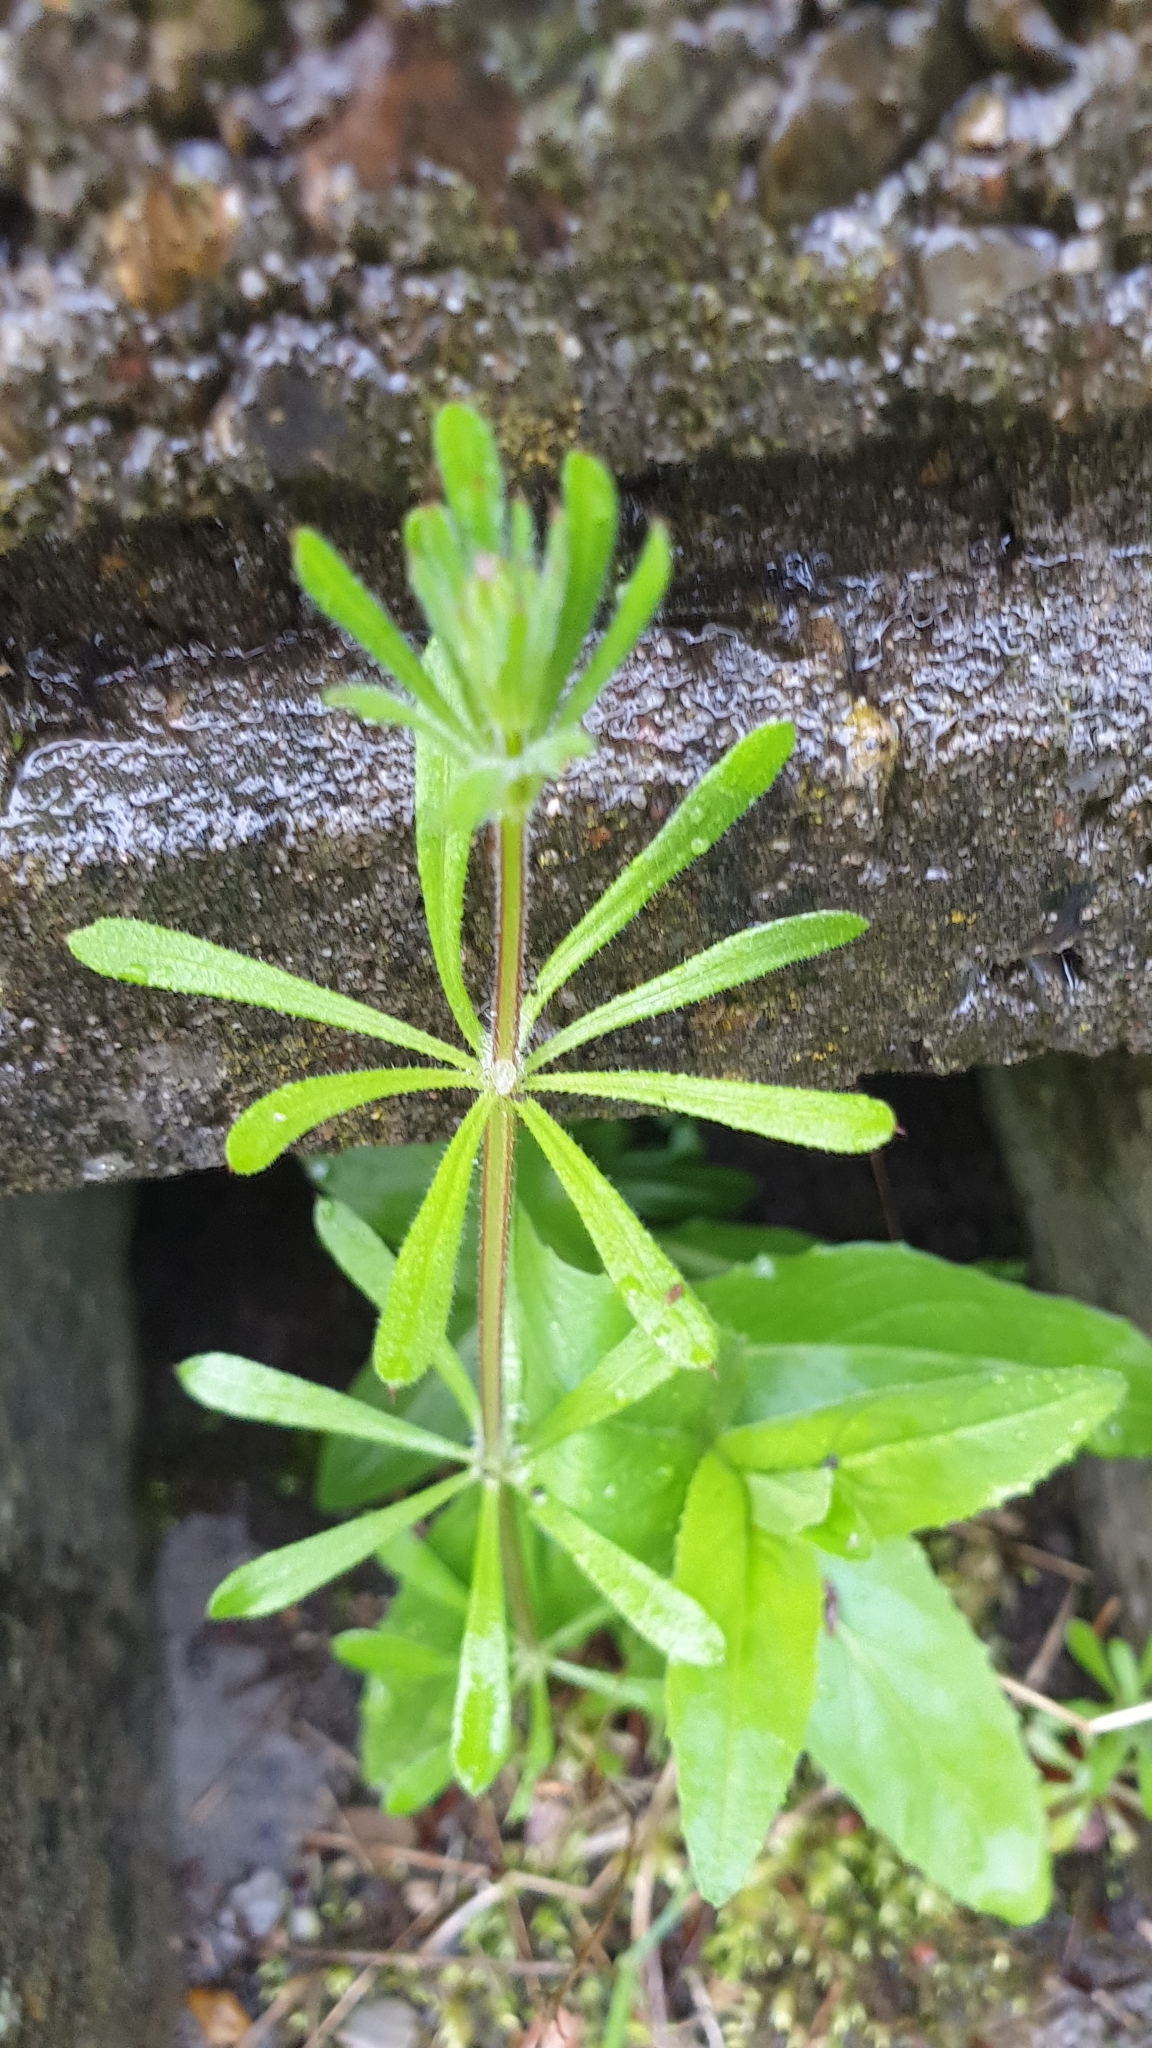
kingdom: Plantae
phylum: Tracheophyta
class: Magnoliopsida
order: Gentianales
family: Rubiaceae
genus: Galium
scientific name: Galium aparine
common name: Cleavers
